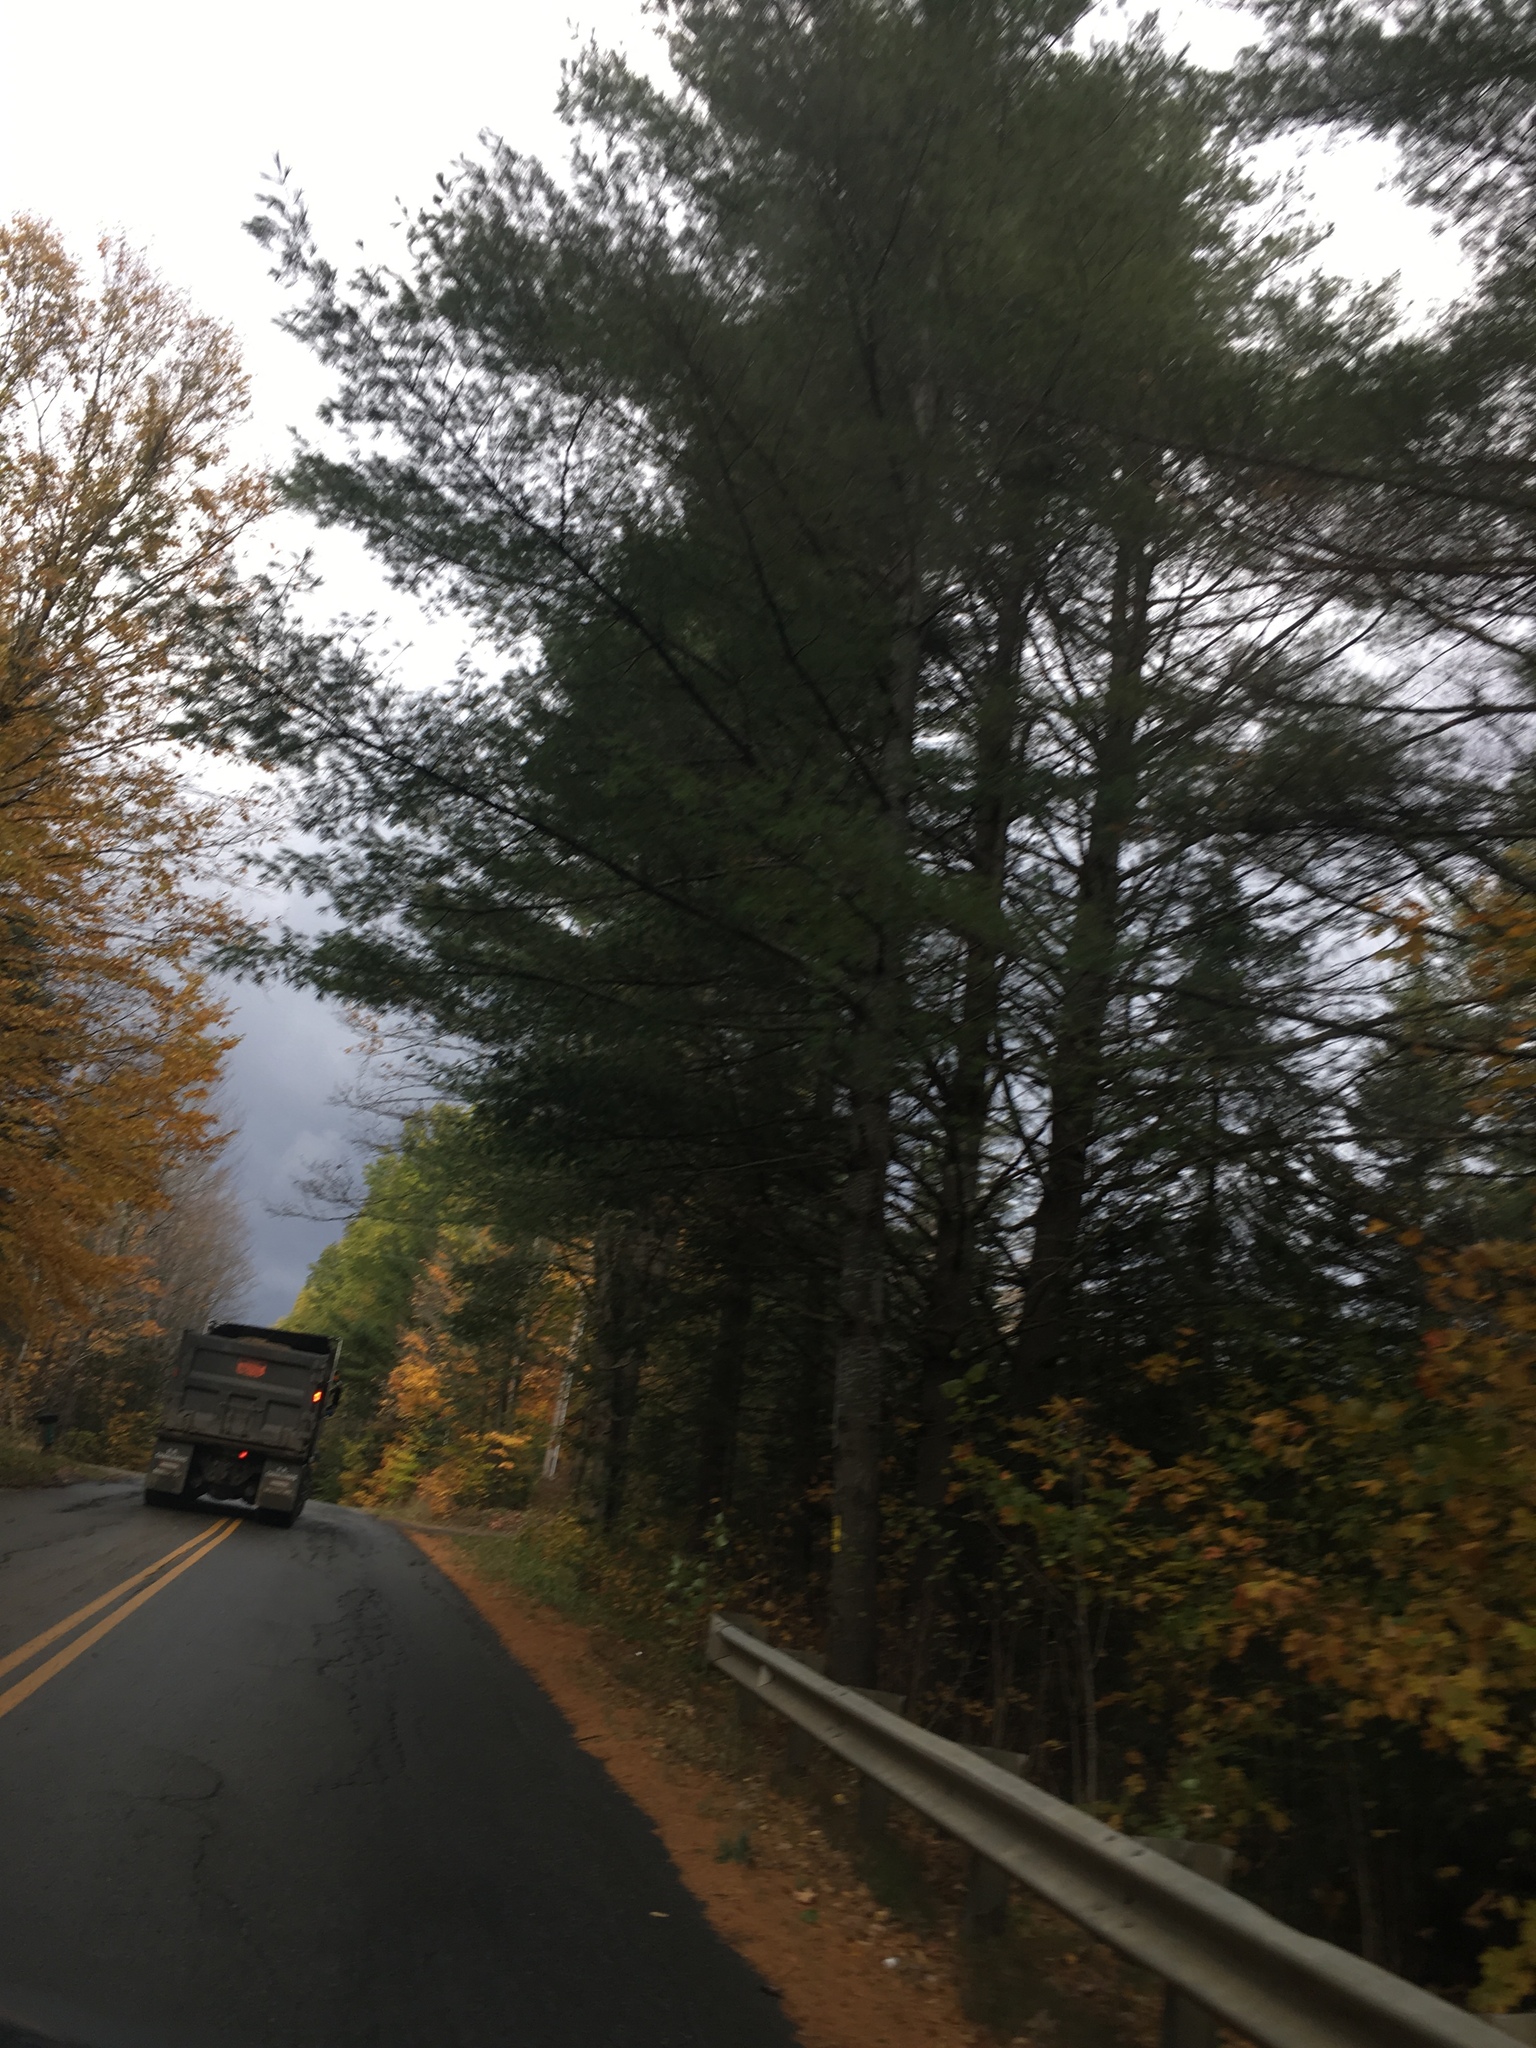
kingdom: Plantae
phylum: Tracheophyta
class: Pinopsida
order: Pinales
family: Pinaceae
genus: Pinus
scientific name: Pinus strobus
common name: Weymouth pine
